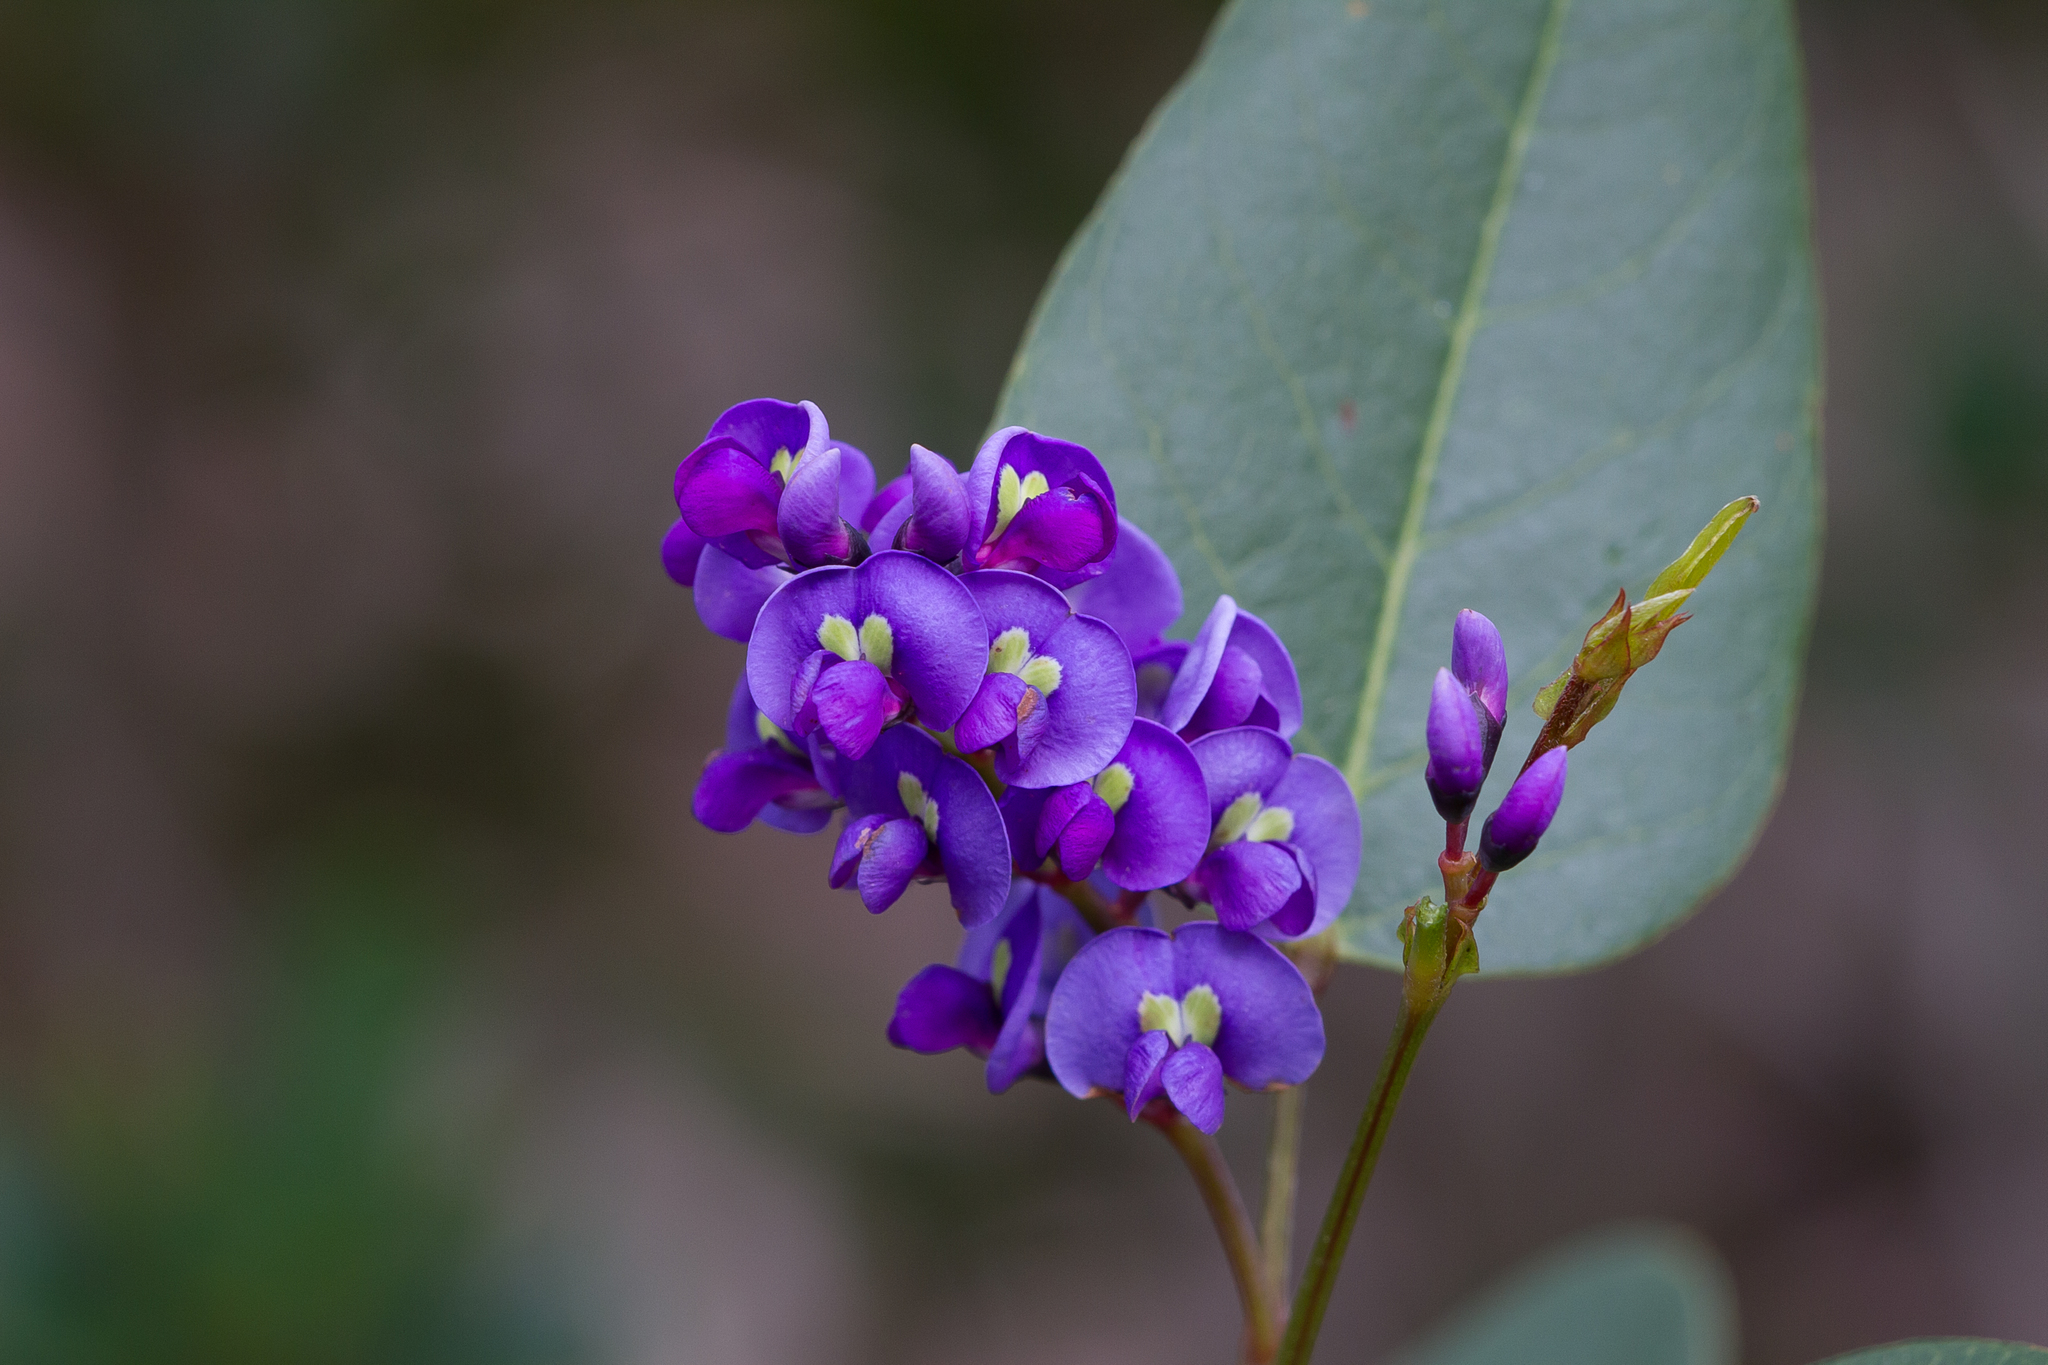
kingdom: Plantae
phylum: Tracheophyta
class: Magnoliopsida
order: Fabales
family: Fabaceae
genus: Hardenbergia
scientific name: Hardenbergia violacea
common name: Coral-pea
